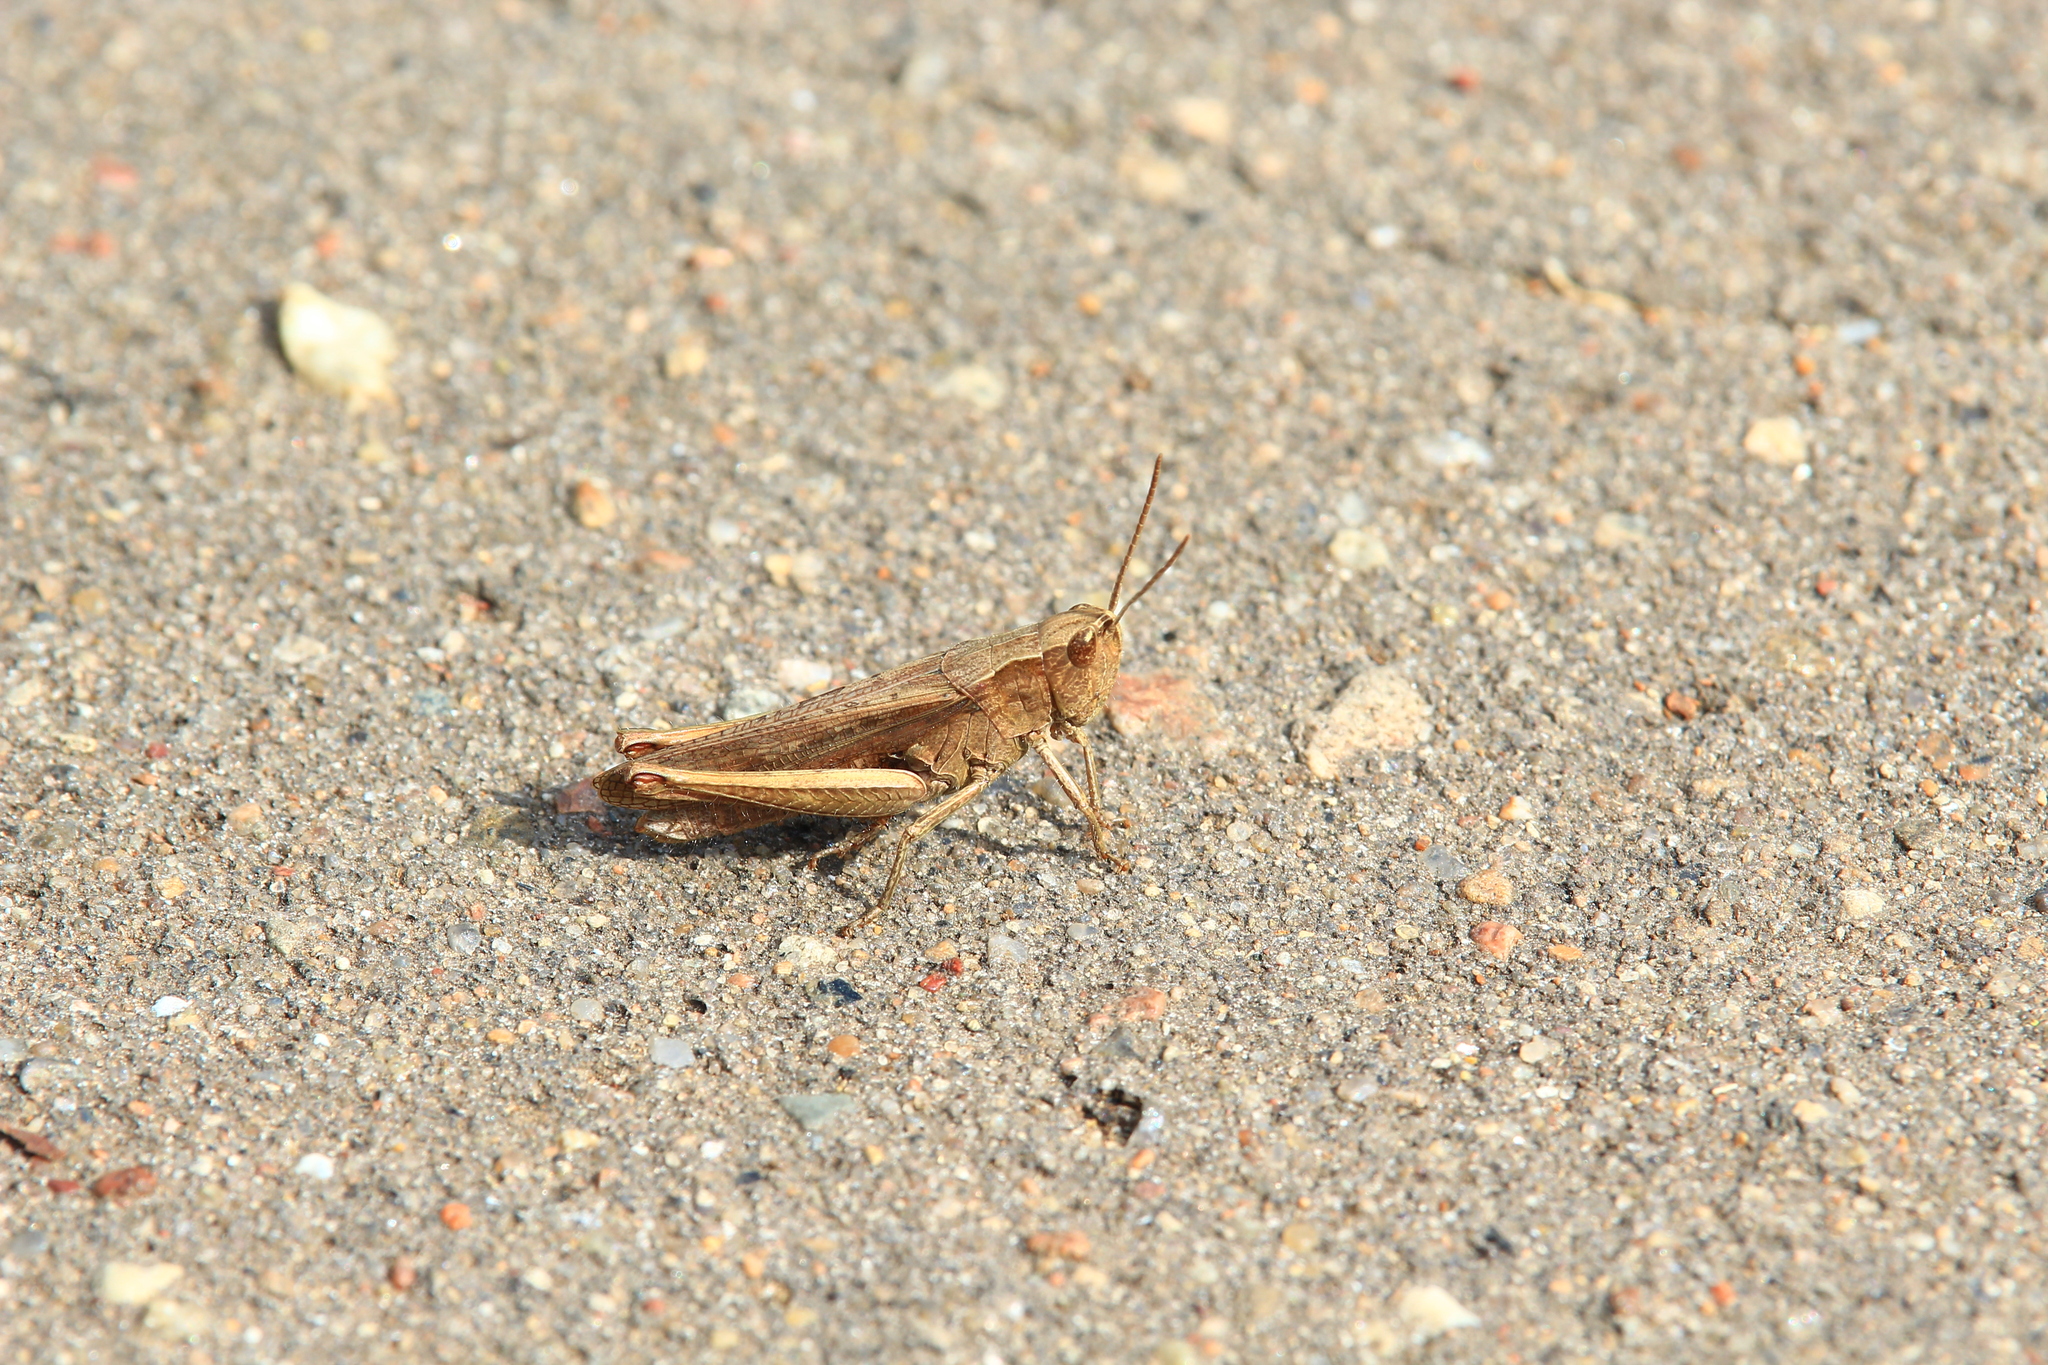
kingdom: Animalia
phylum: Arthropoda
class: Insecta
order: Orthoptera
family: Acrididae
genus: Chorthippus
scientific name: Chorthippus dorsatus
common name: Steppe grasshopper
